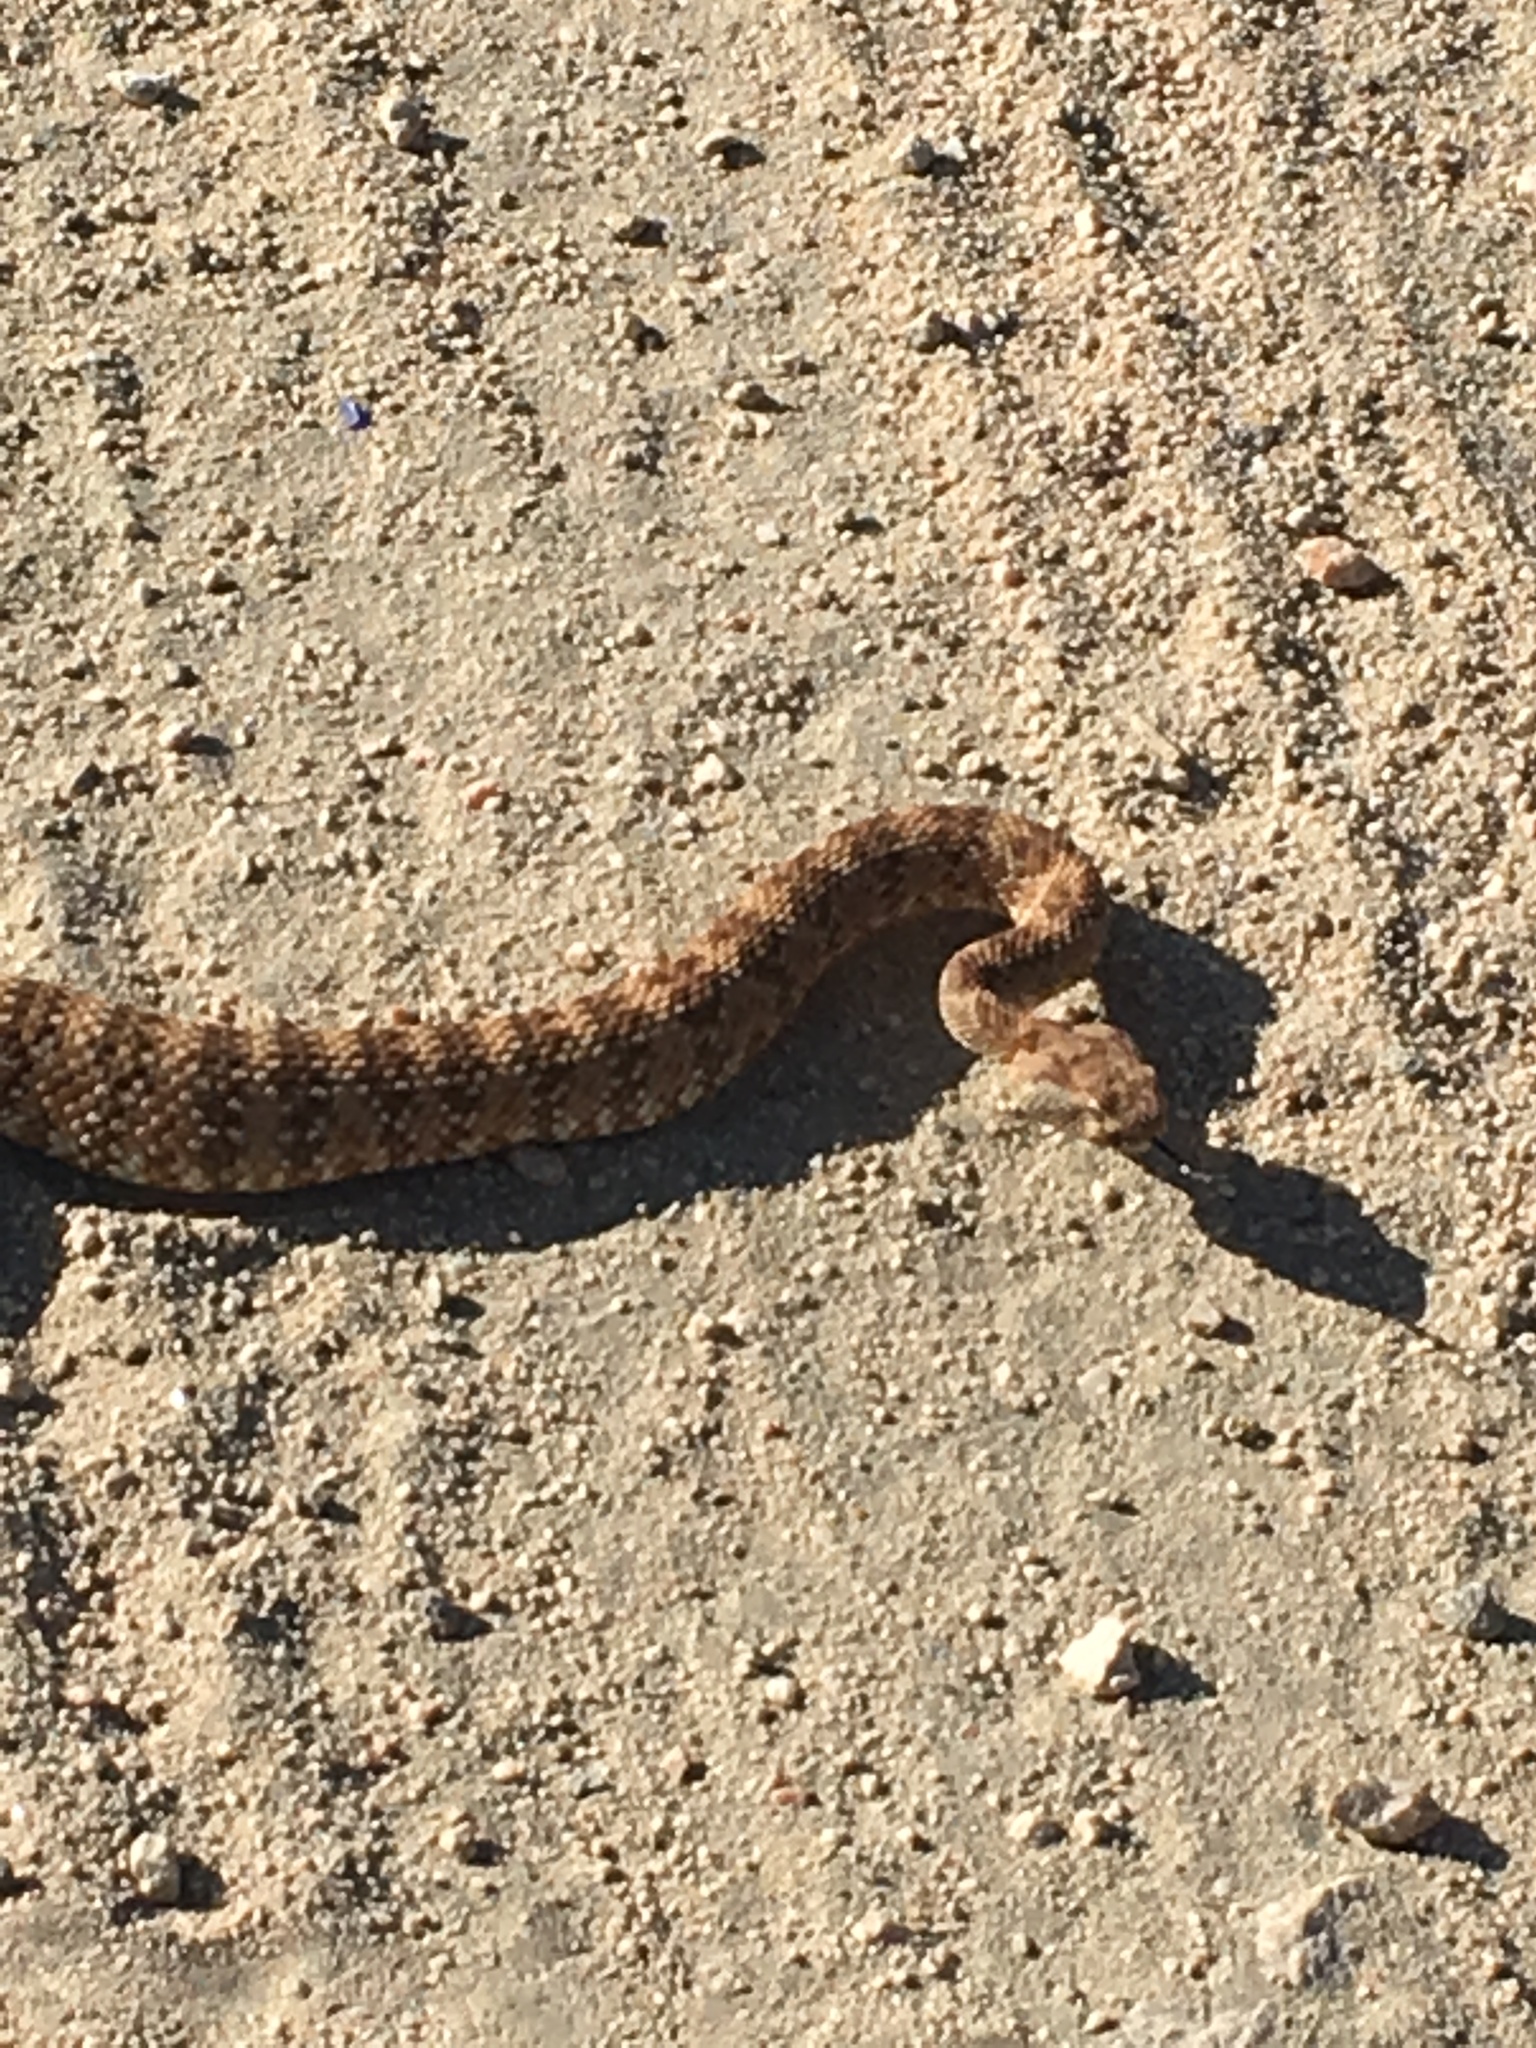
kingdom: Animalia
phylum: Chordata
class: Squamata
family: Viperidae
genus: Crotalus
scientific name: Crotalus pyrrhus
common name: Southwestern speckled rattlesnake
